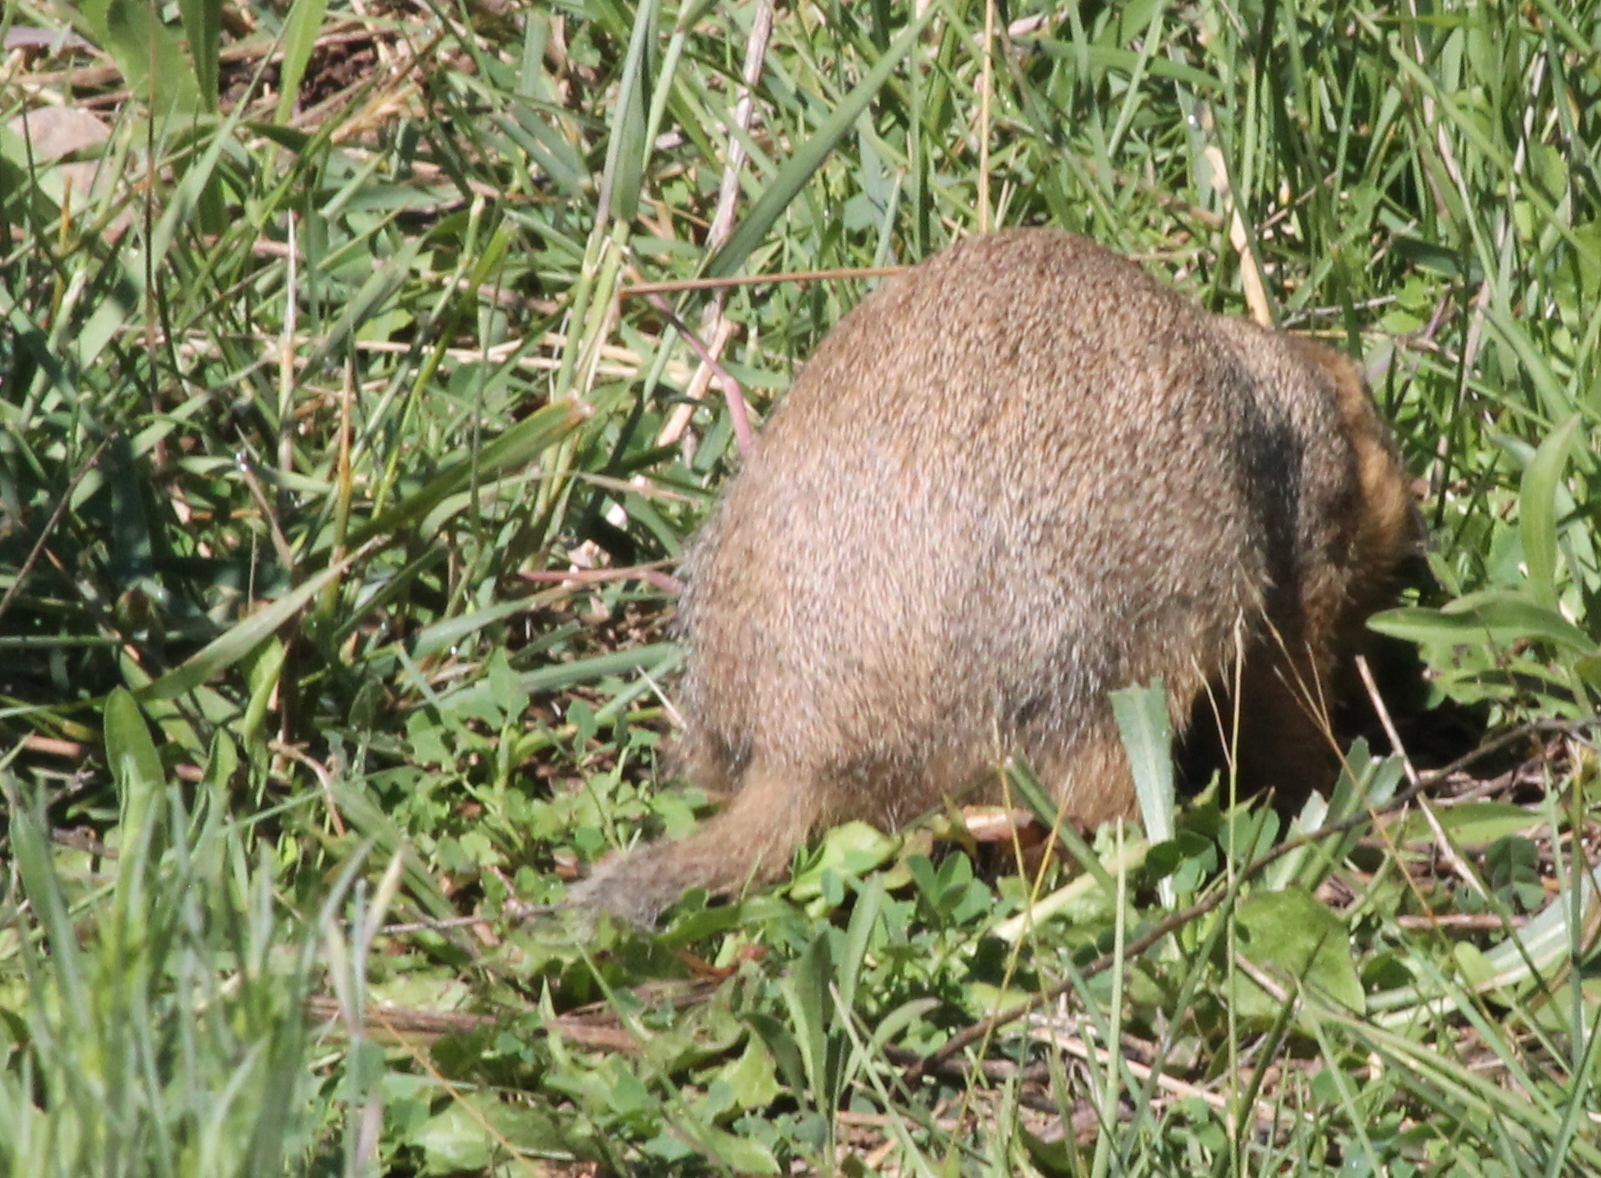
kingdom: Animalia
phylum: Chordata
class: Mammalia
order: Rodentia
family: Sciuridae
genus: Cynomys
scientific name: Cynomys gunnisoni
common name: Gunnison's prairie dog
